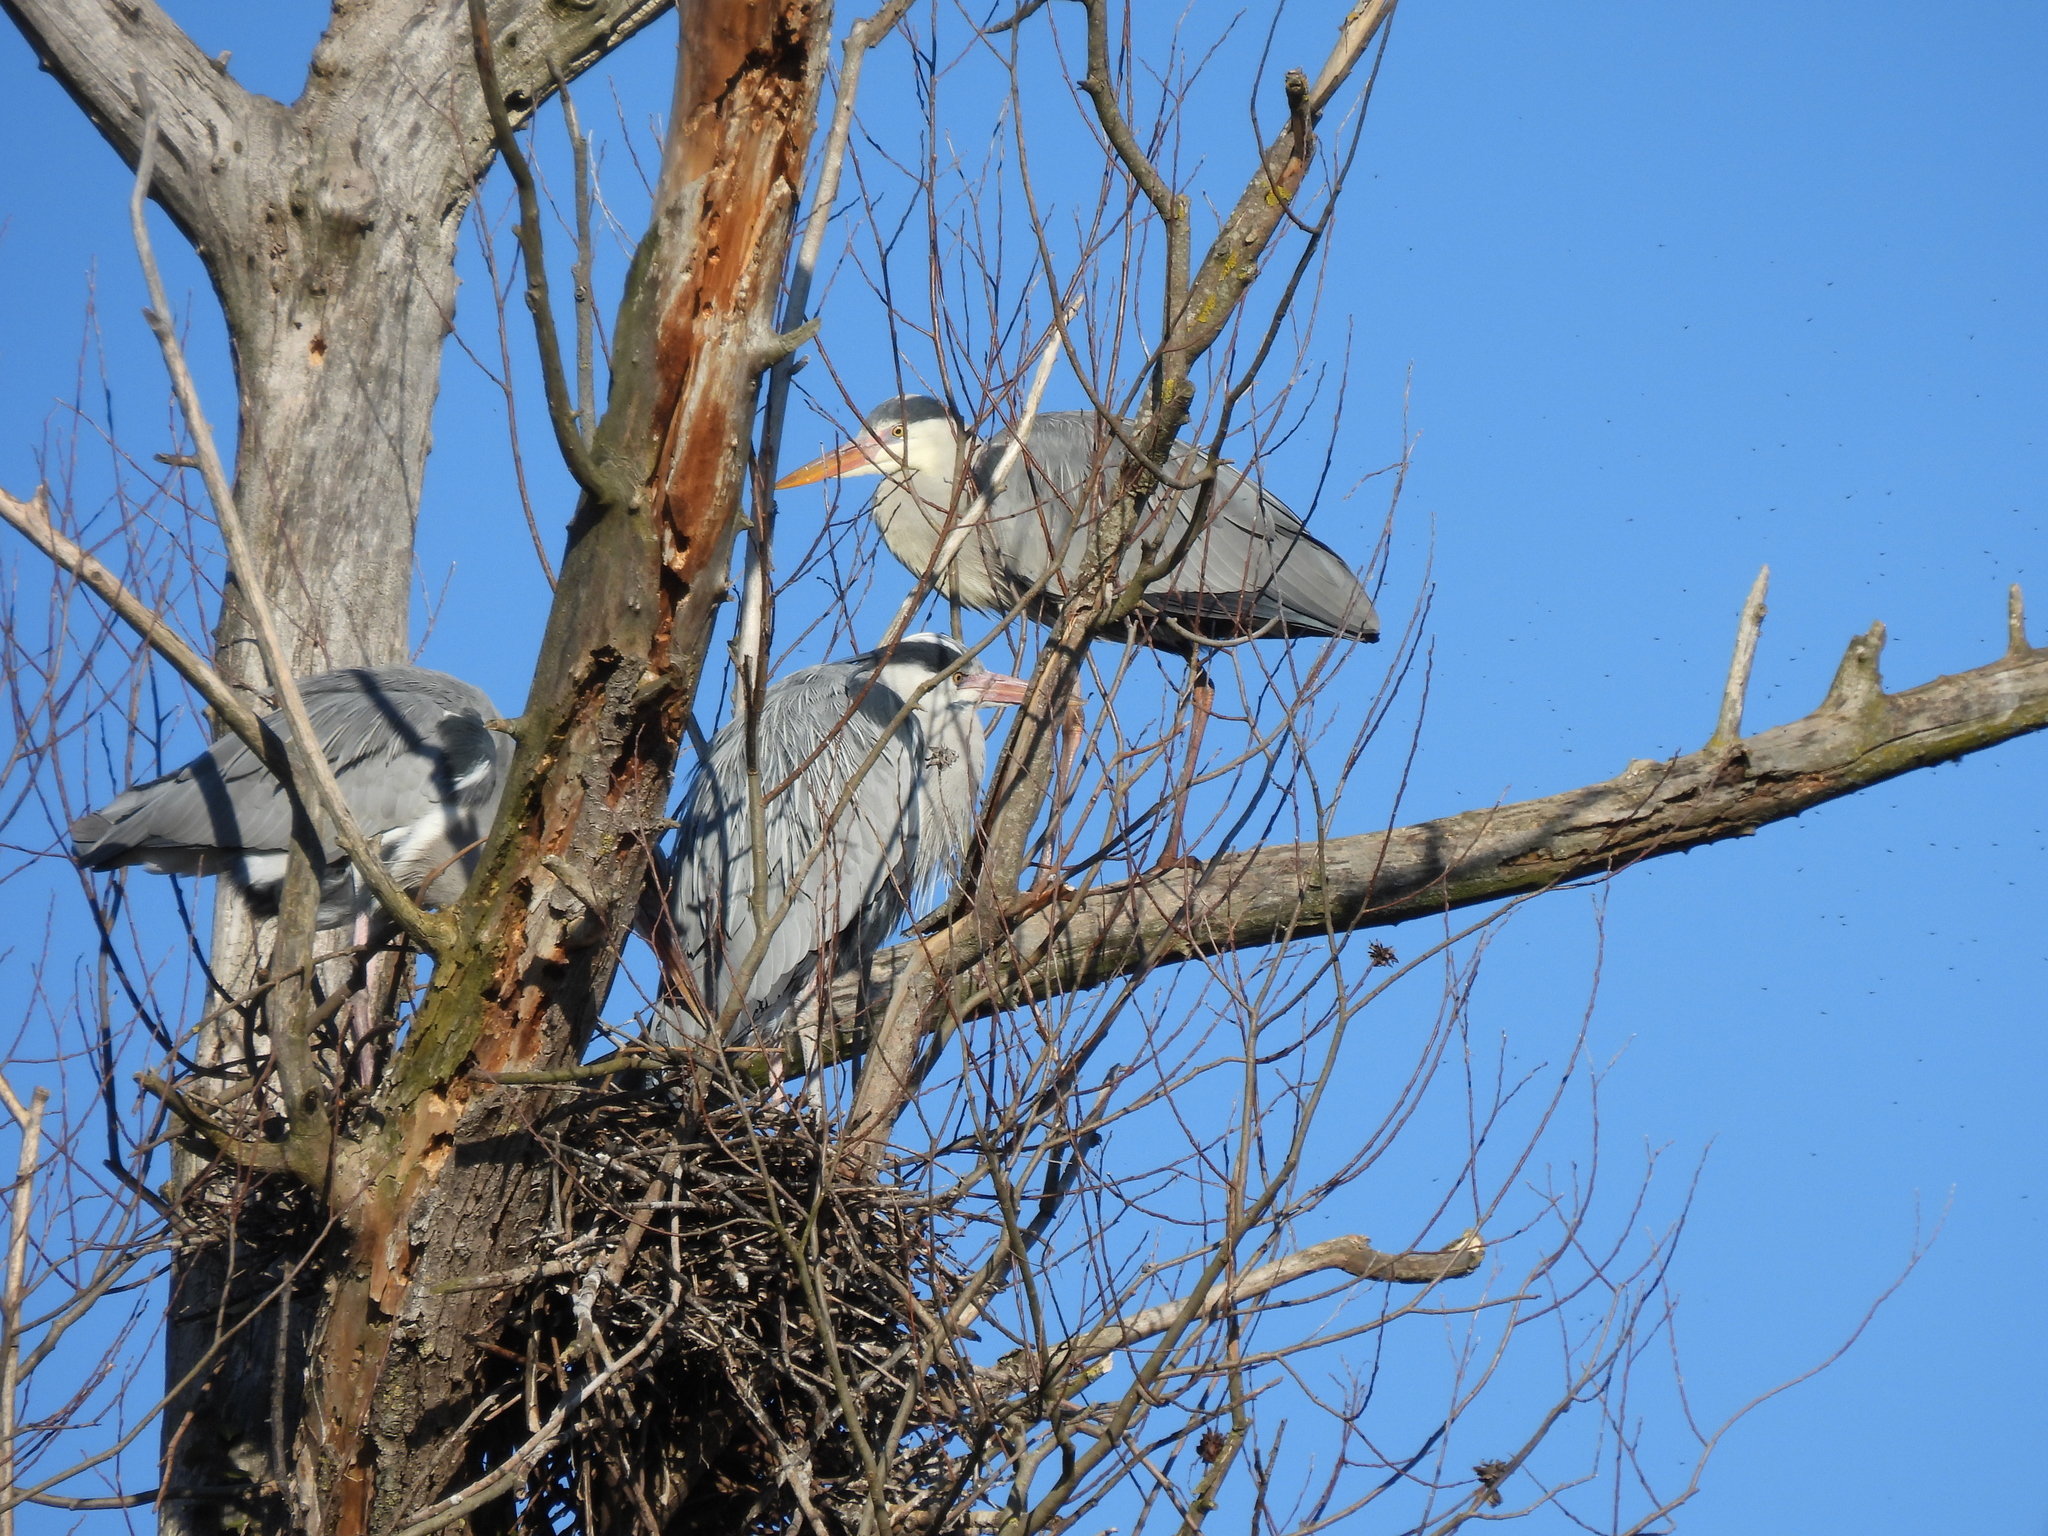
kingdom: Animalia
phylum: Chordata
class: Aves
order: Pelecaniformes
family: Ardeidae
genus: Ardea
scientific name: Ardea cinerea
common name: Grey heron
